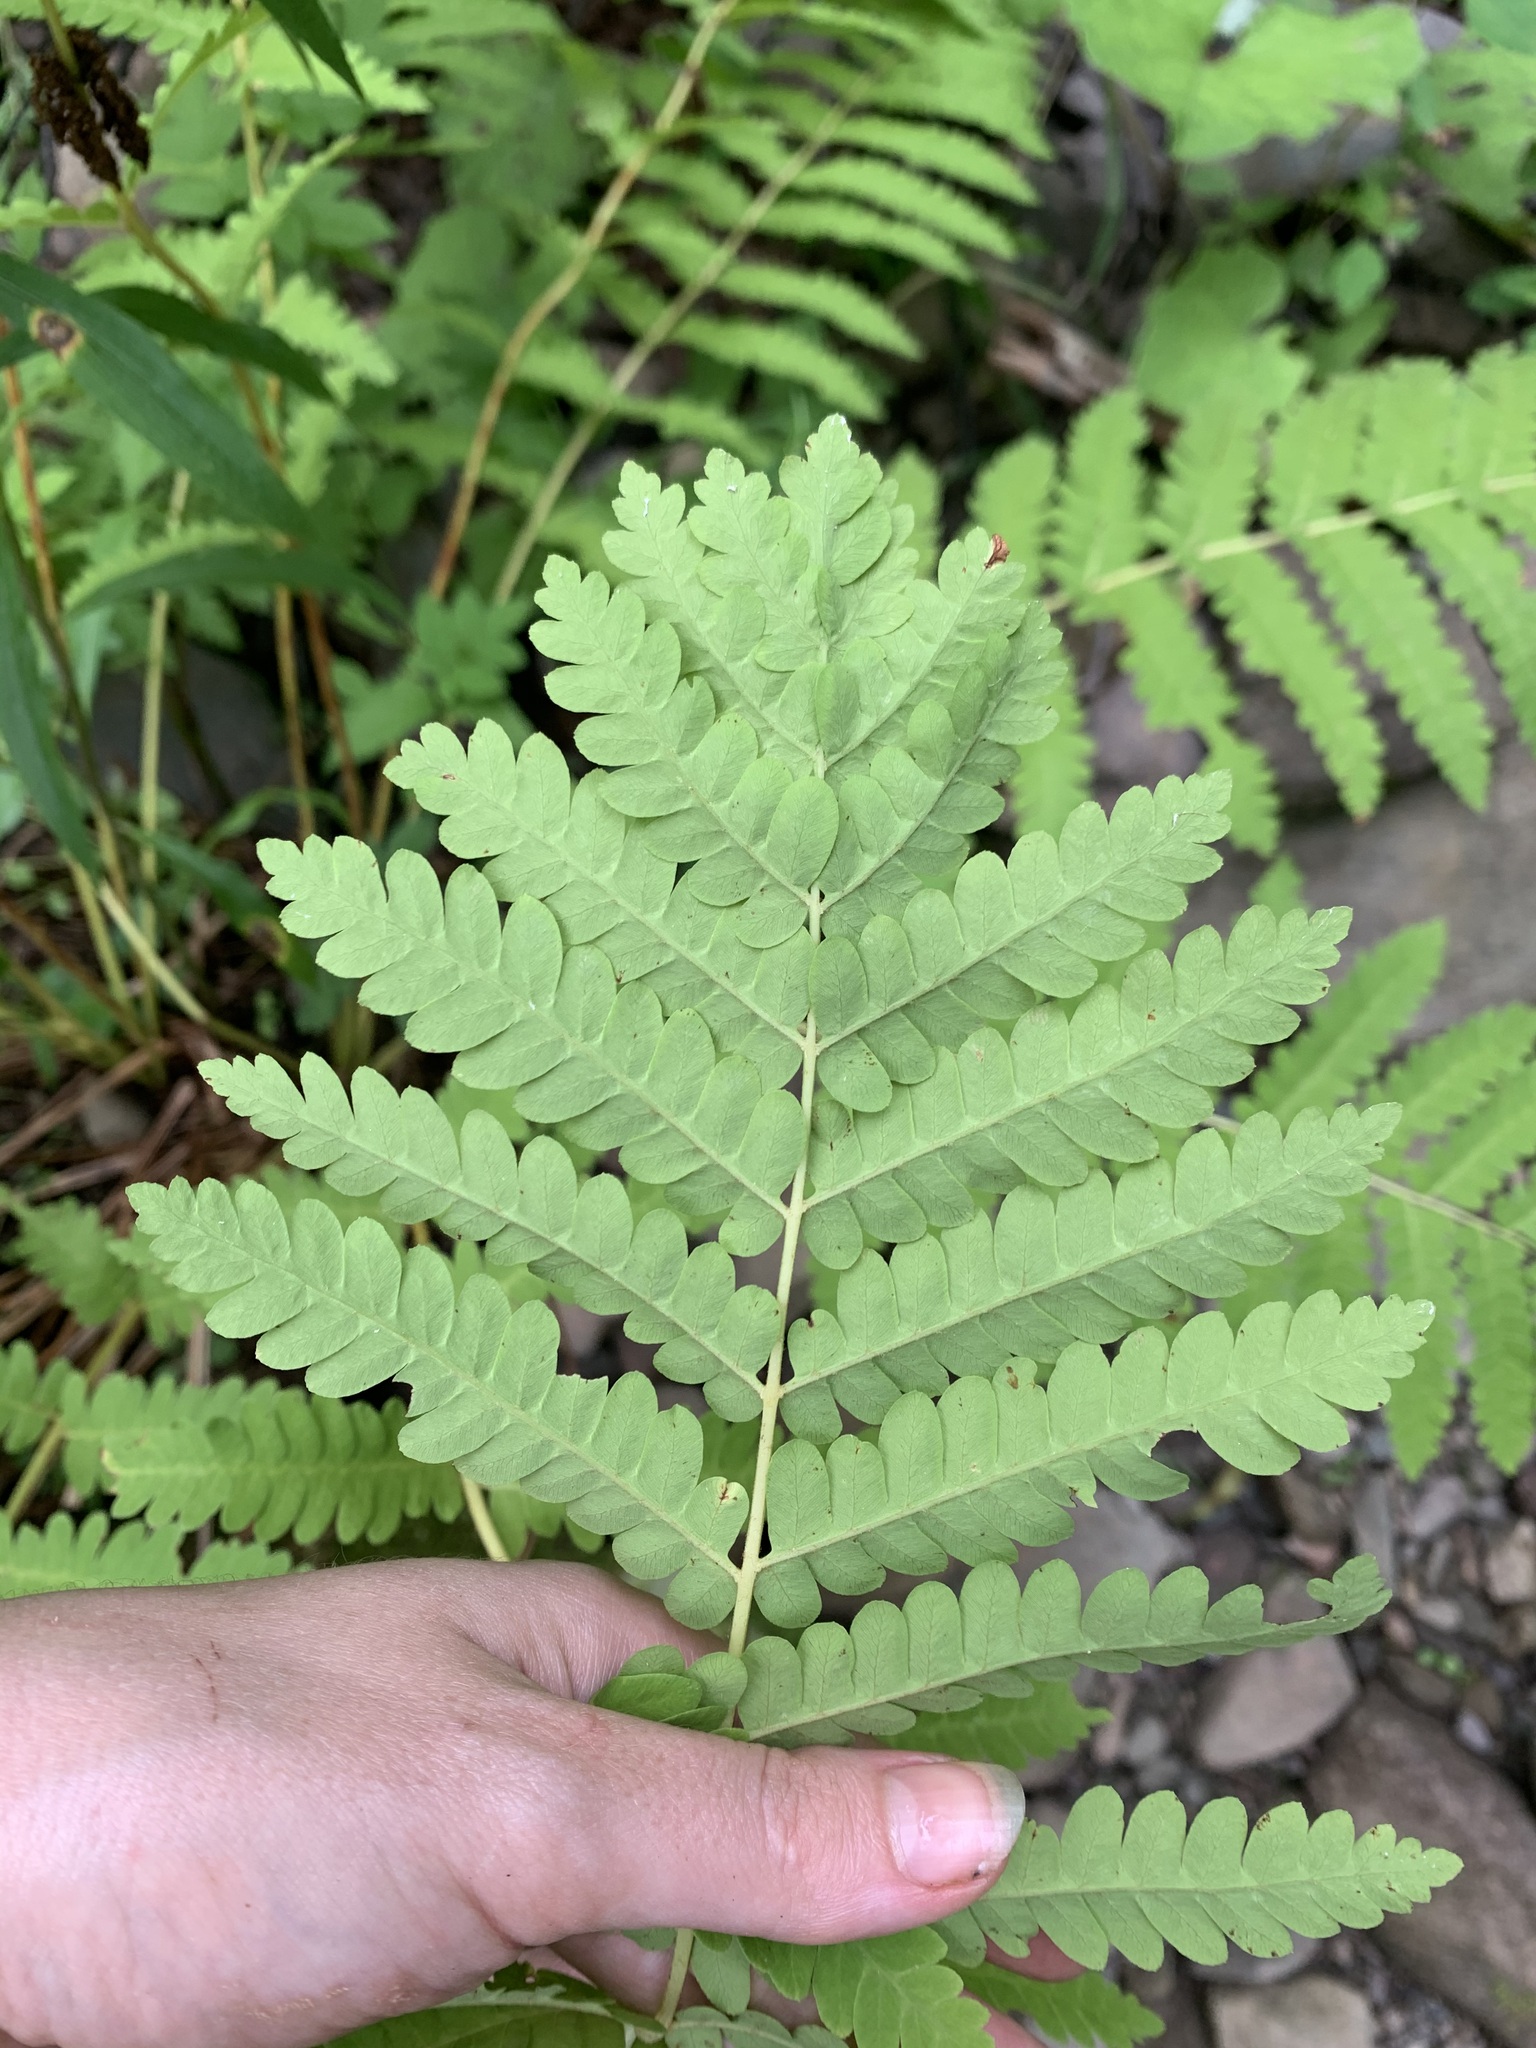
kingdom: Plantae
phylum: Tracheophyta
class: Polypodiopsida
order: Osmundales
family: Osmundaceae
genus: Claytosmunda
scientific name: Claytosmunda claytoniana
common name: Clayton's fern
